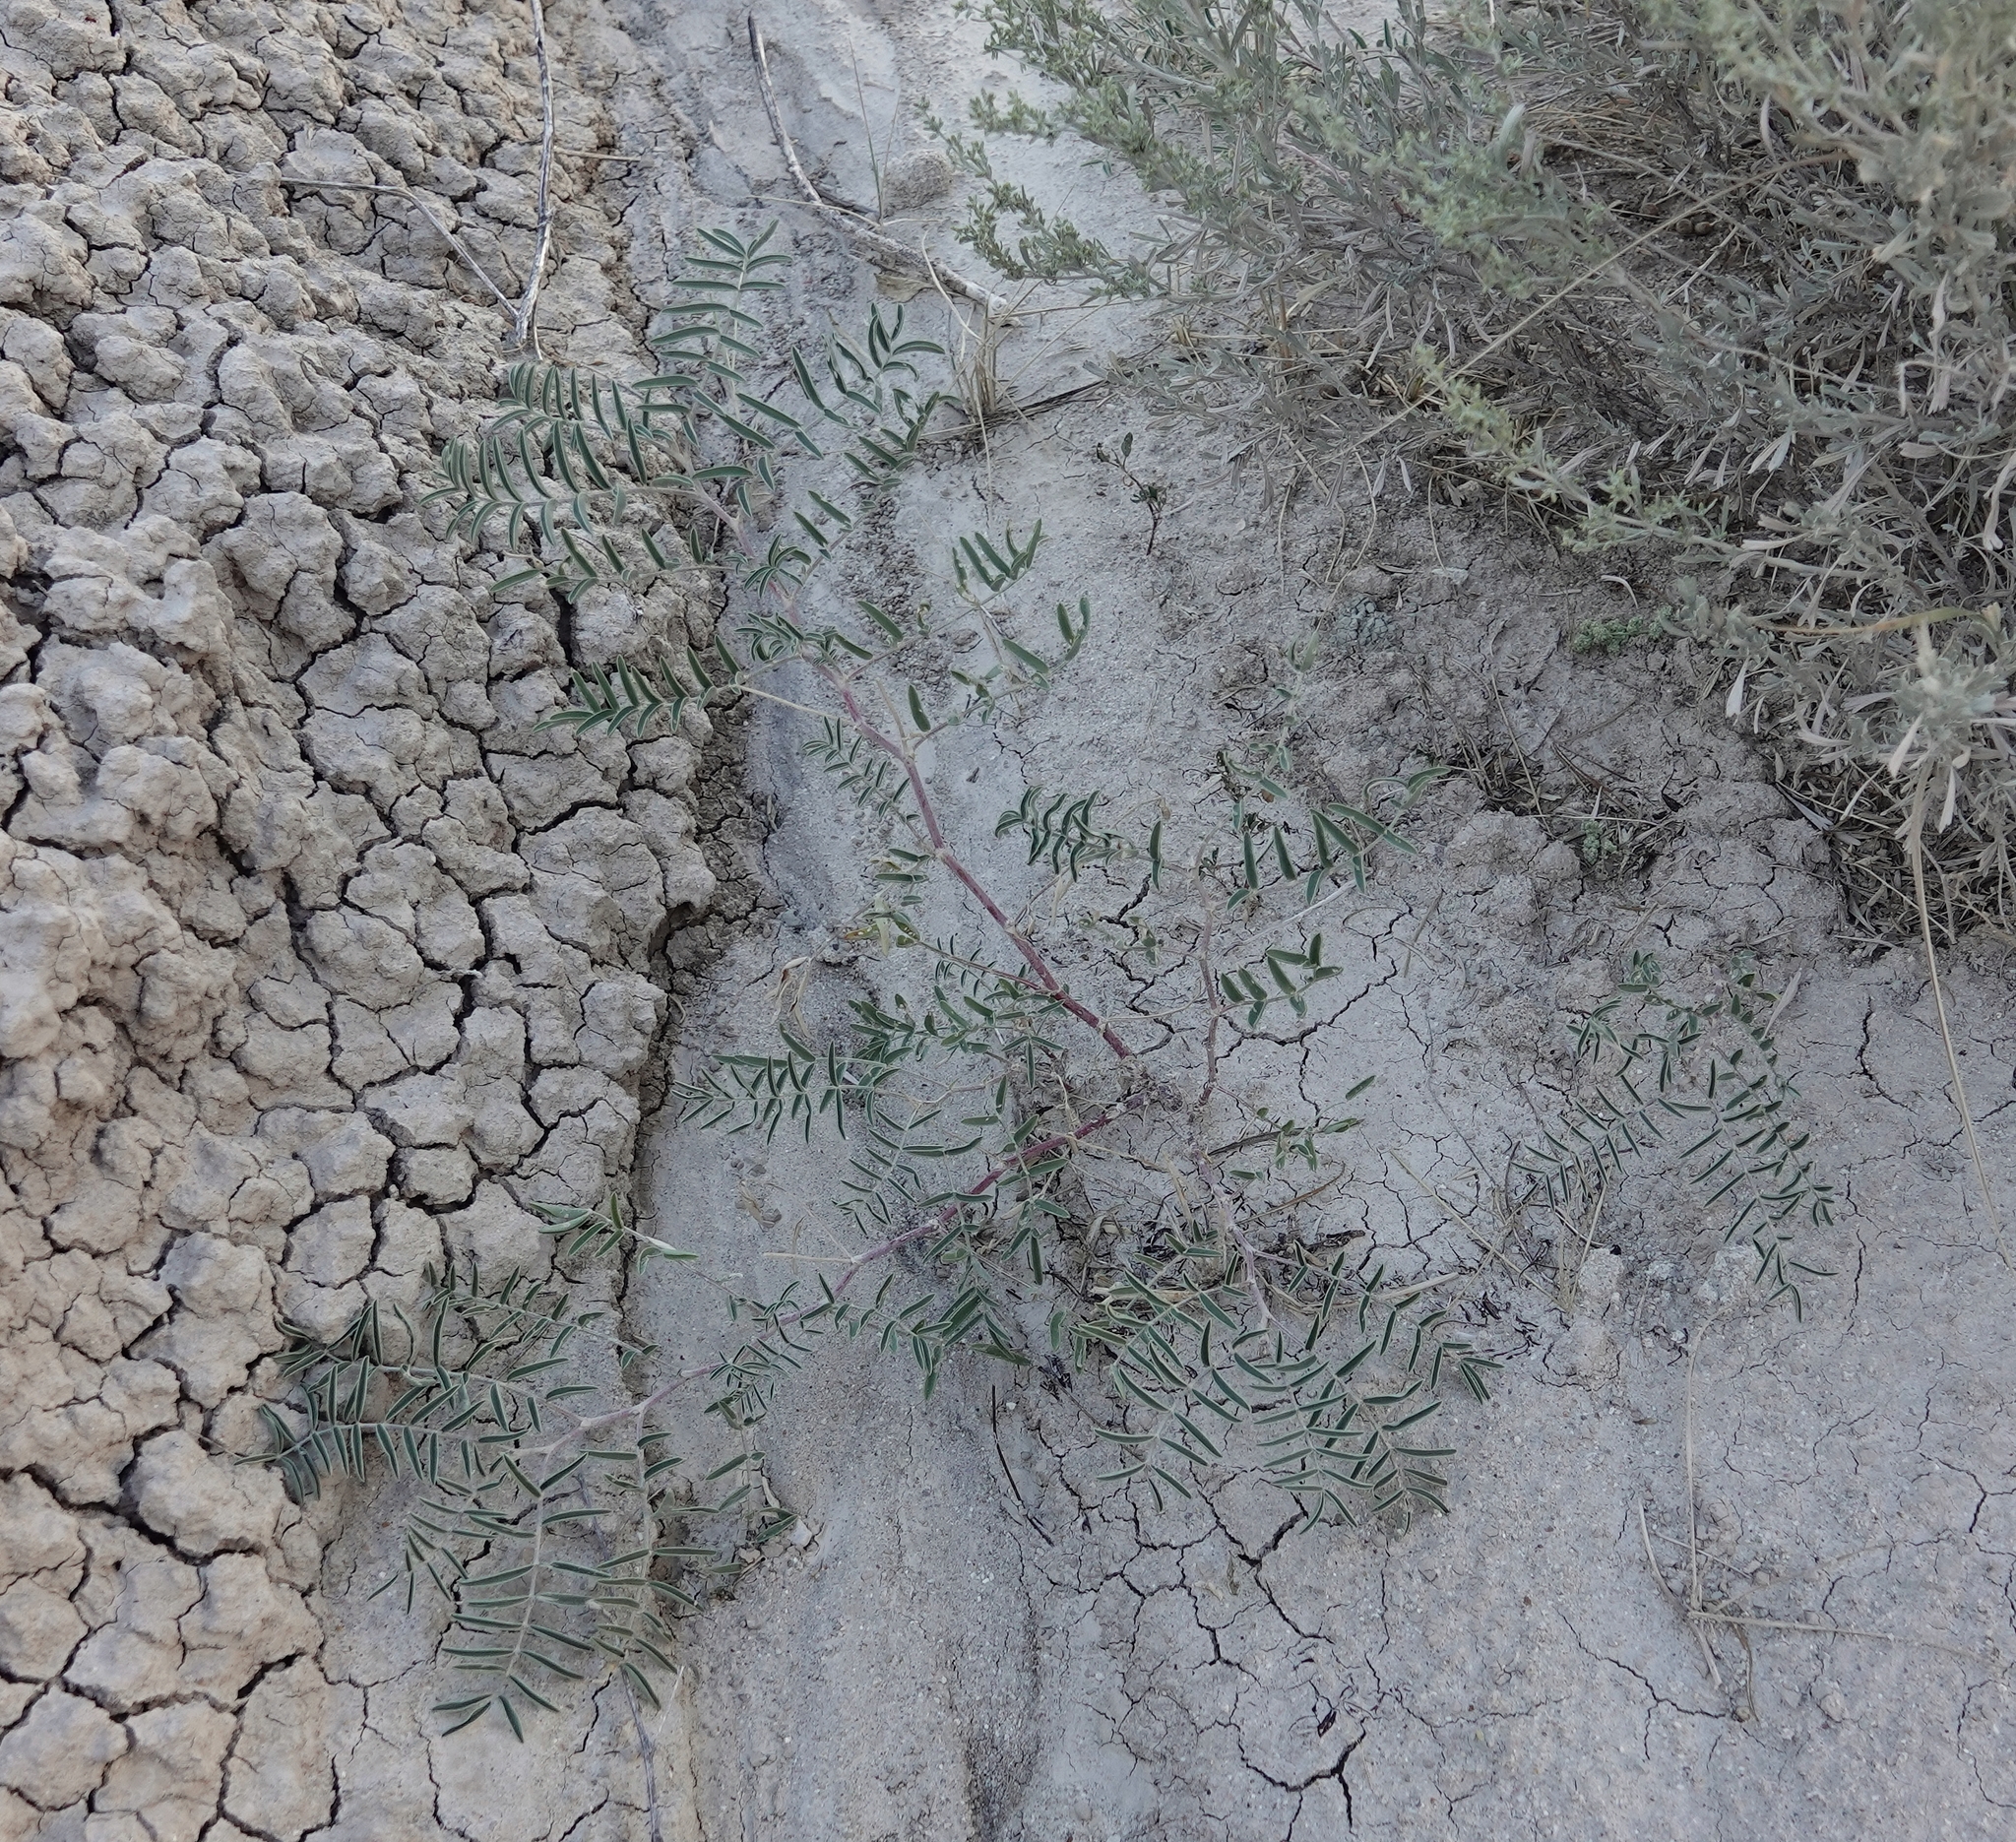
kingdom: Plantae
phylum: Tracheophyta
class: Magnoliopsida
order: Fabales
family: Fabaceae
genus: Astragalus
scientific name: Astragalus gracilis
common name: Slender milk-vetch
